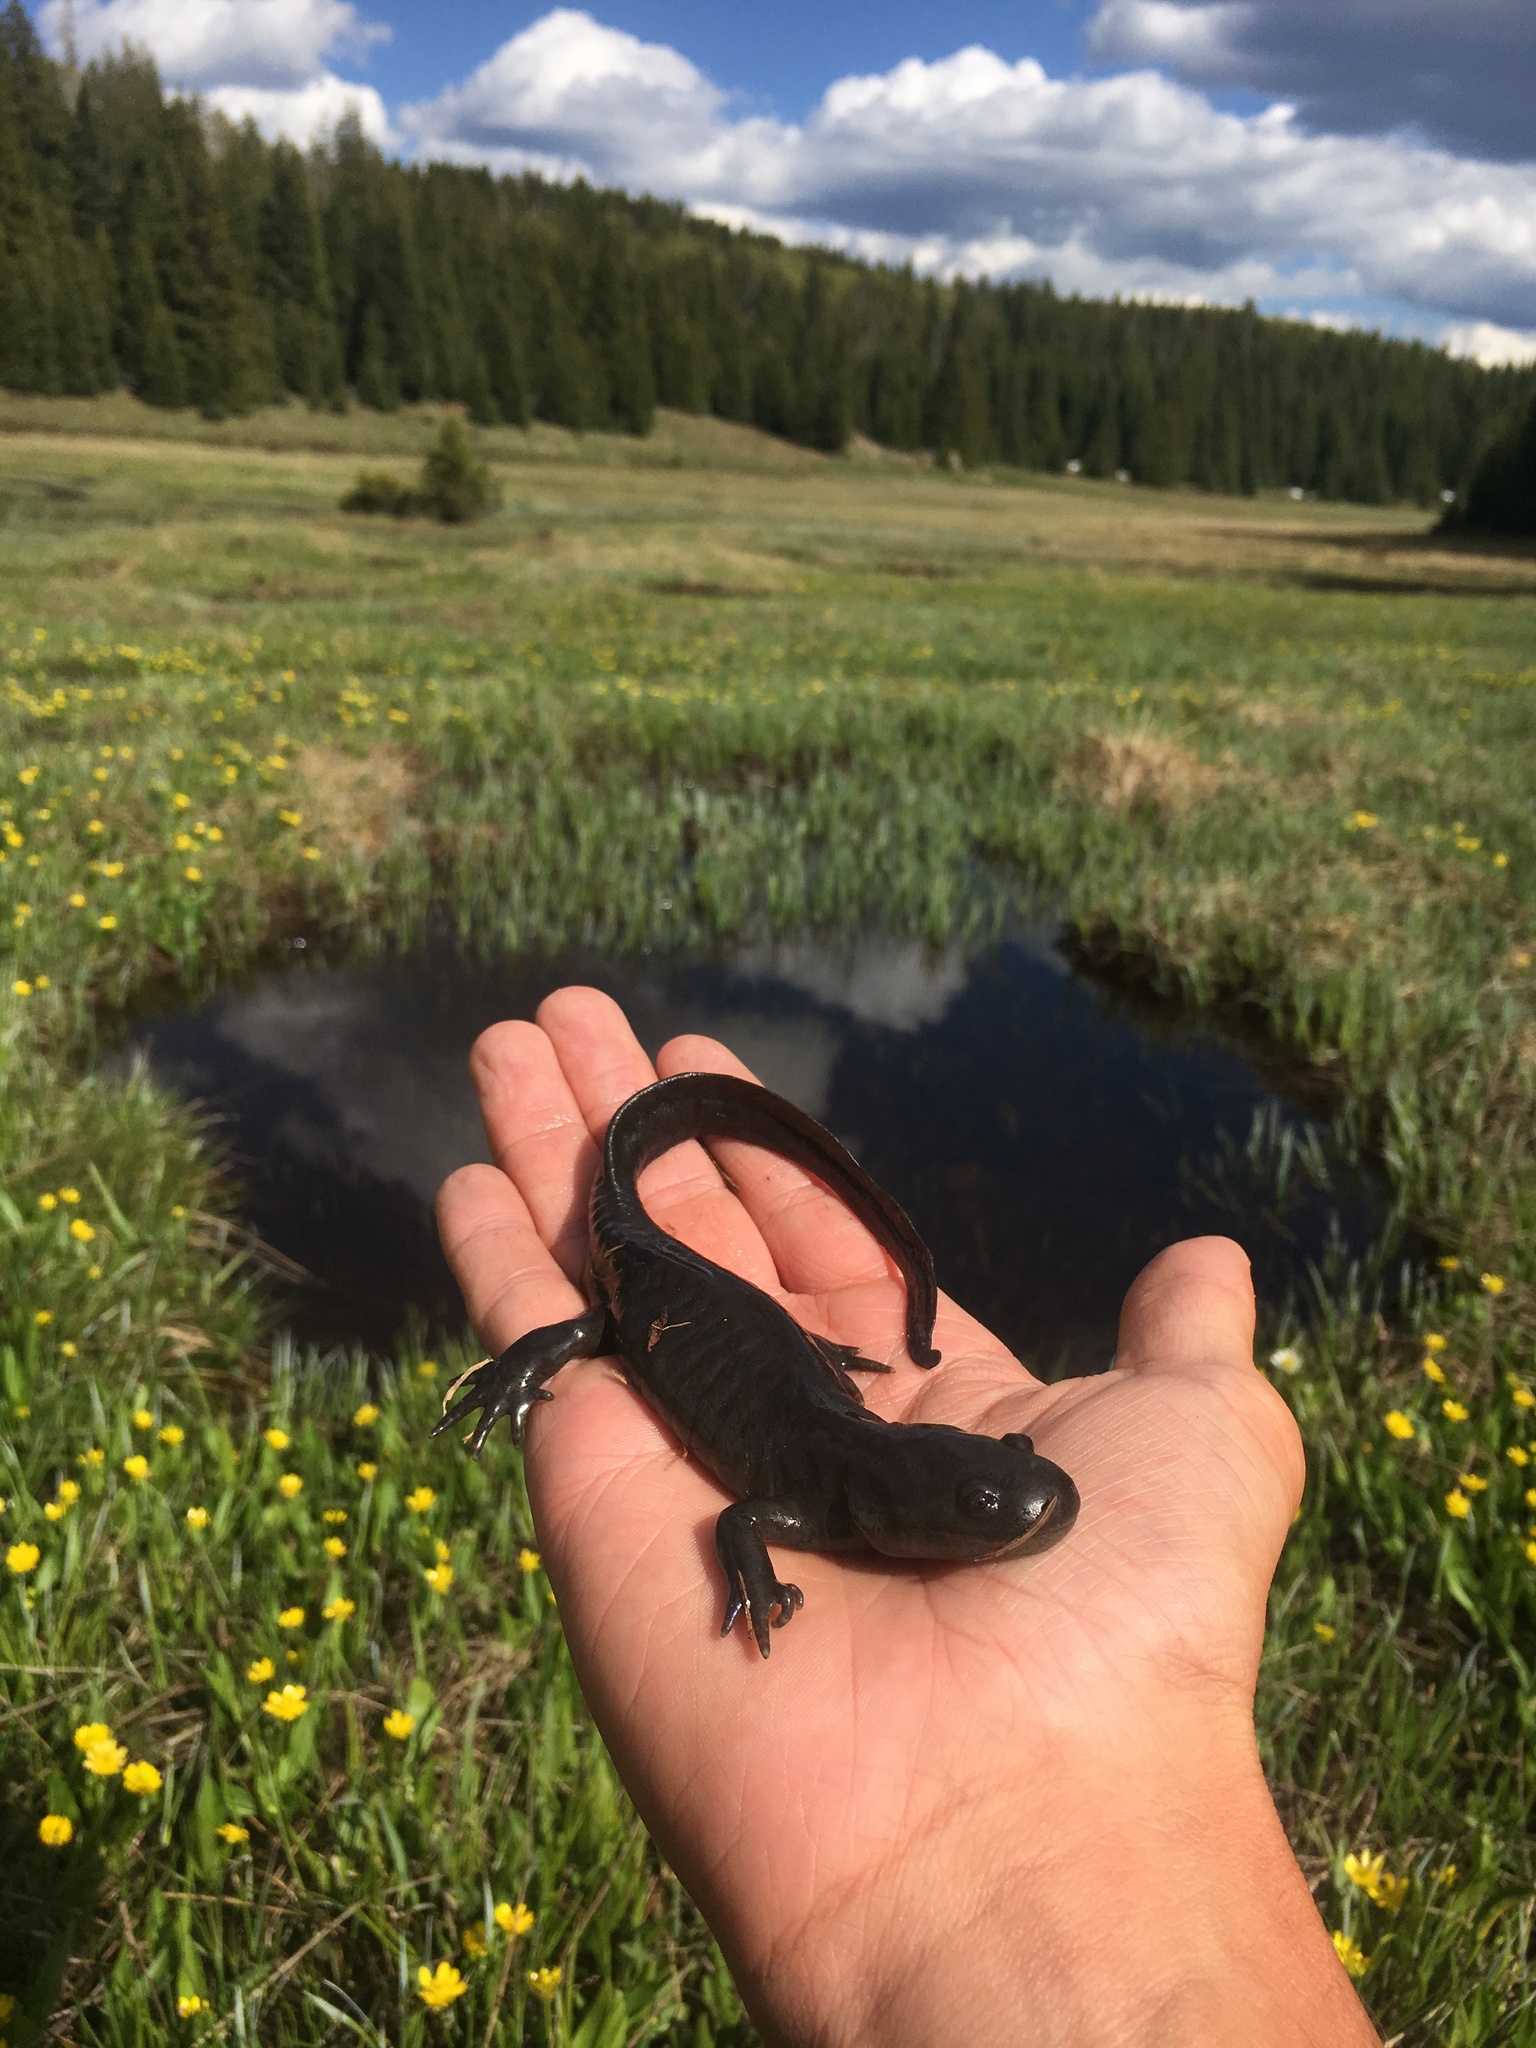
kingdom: Animalia
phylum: Chordata
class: Amphibia
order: Caudata
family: Ambystomatidae
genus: Ambystoma
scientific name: Ambystoma mavortium
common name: Western tiger salamander
